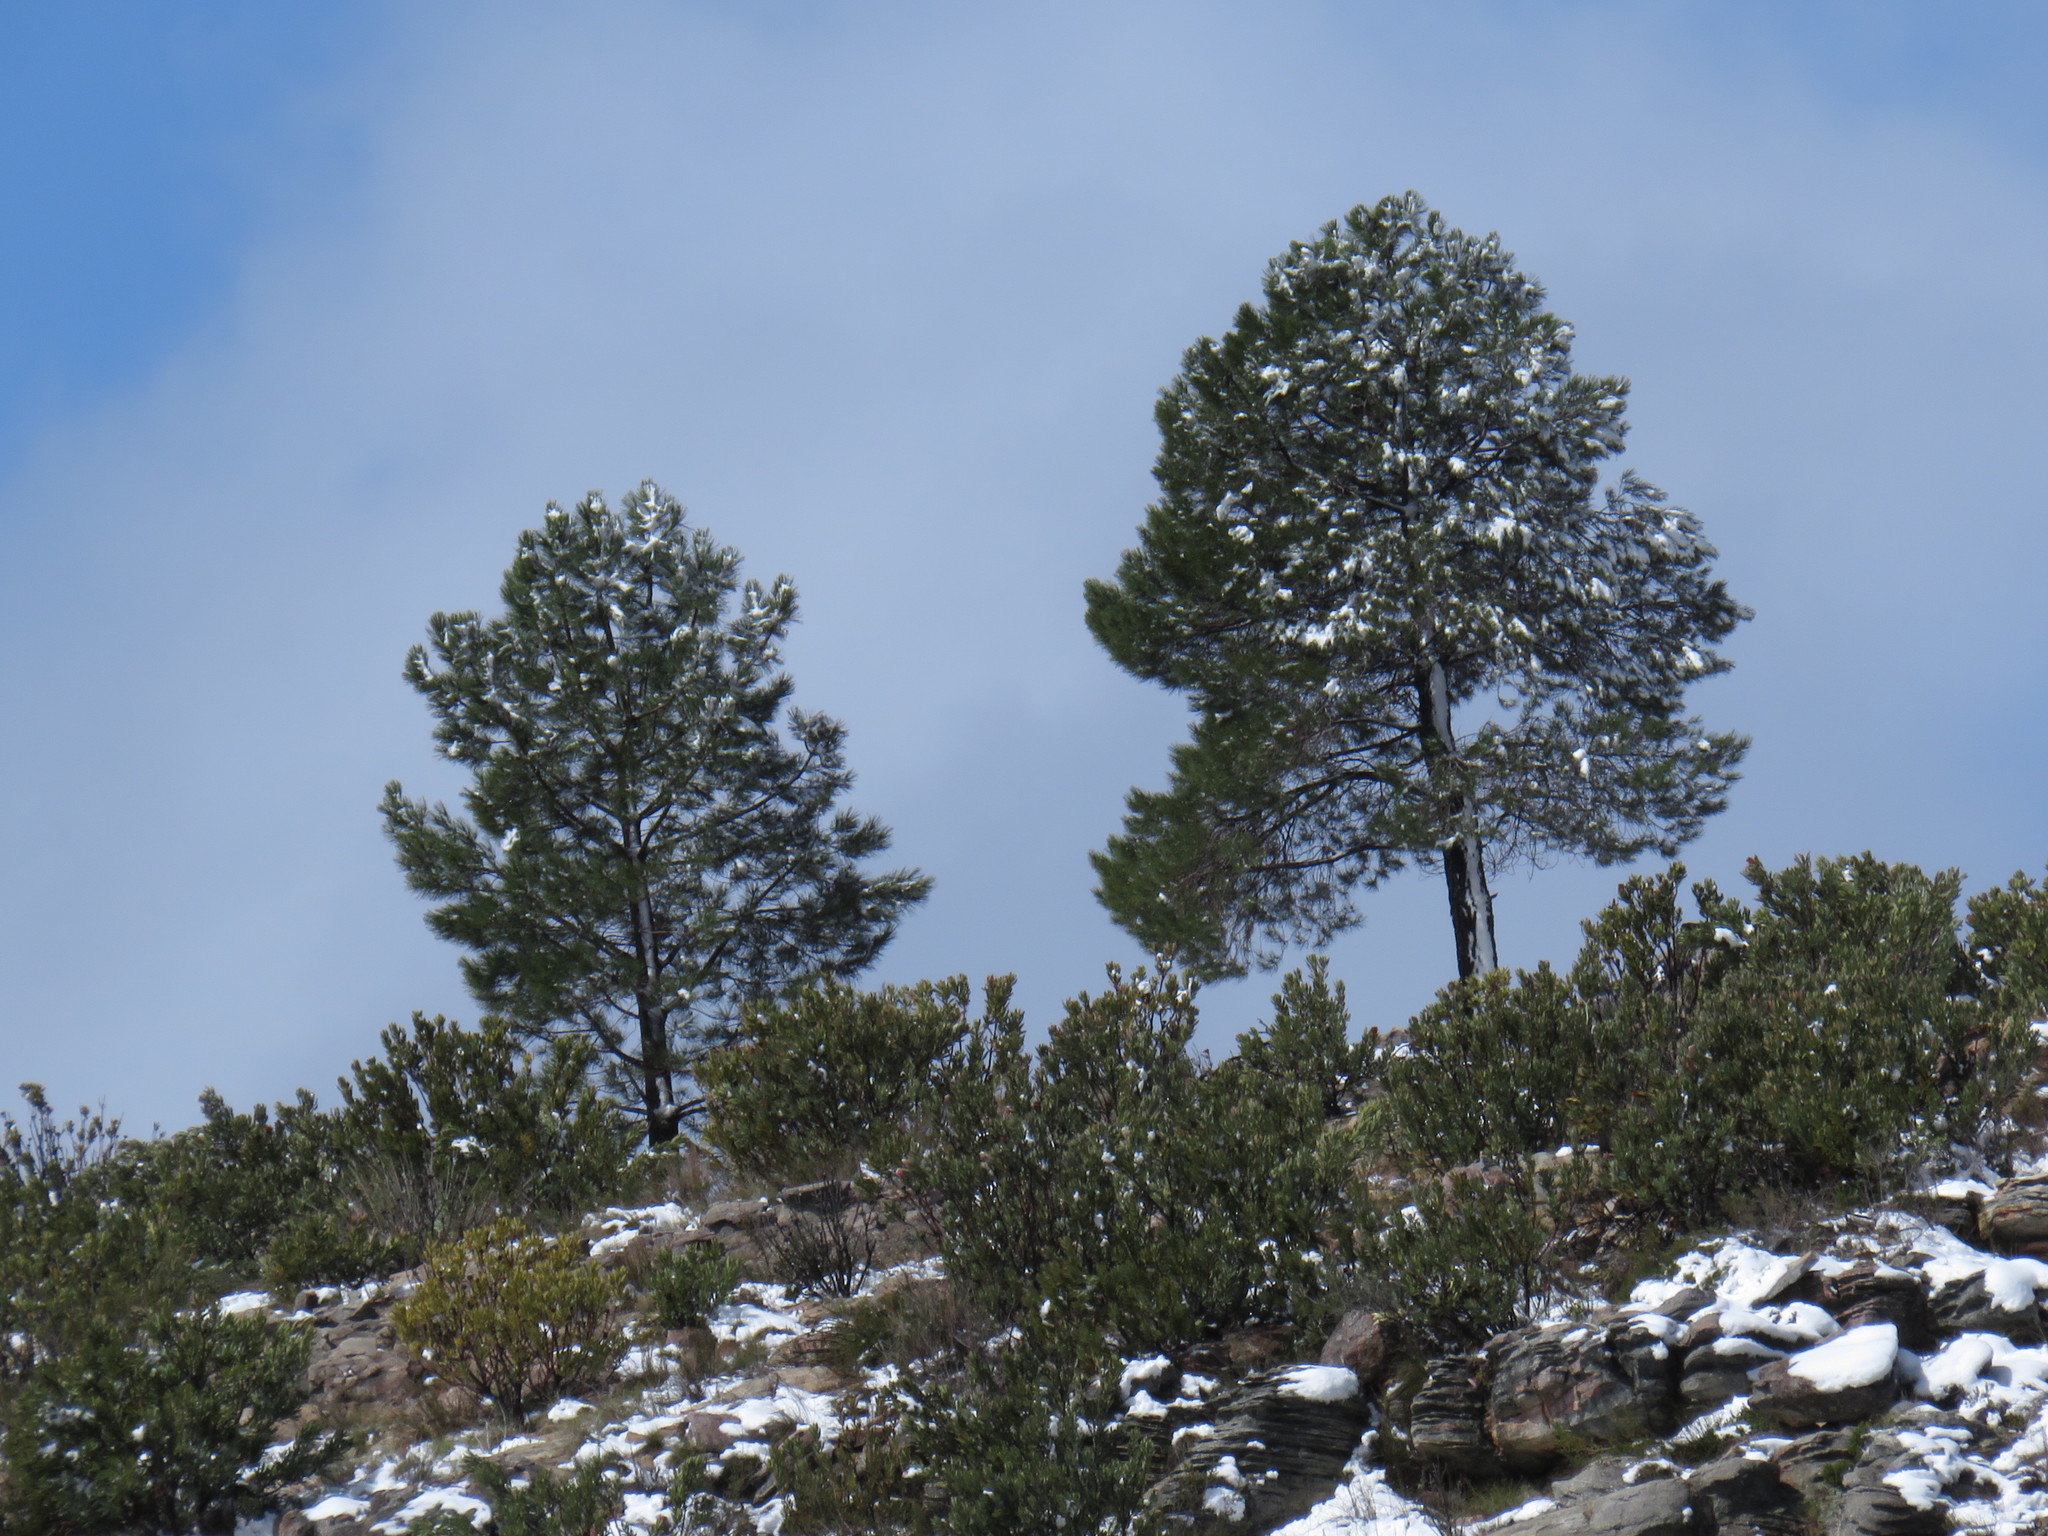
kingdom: Plantae
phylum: Tracheophyta
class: Pinopsida
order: Pinales
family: Pinaceae
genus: Pinus
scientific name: Pinus pinaster
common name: Maritime pine
